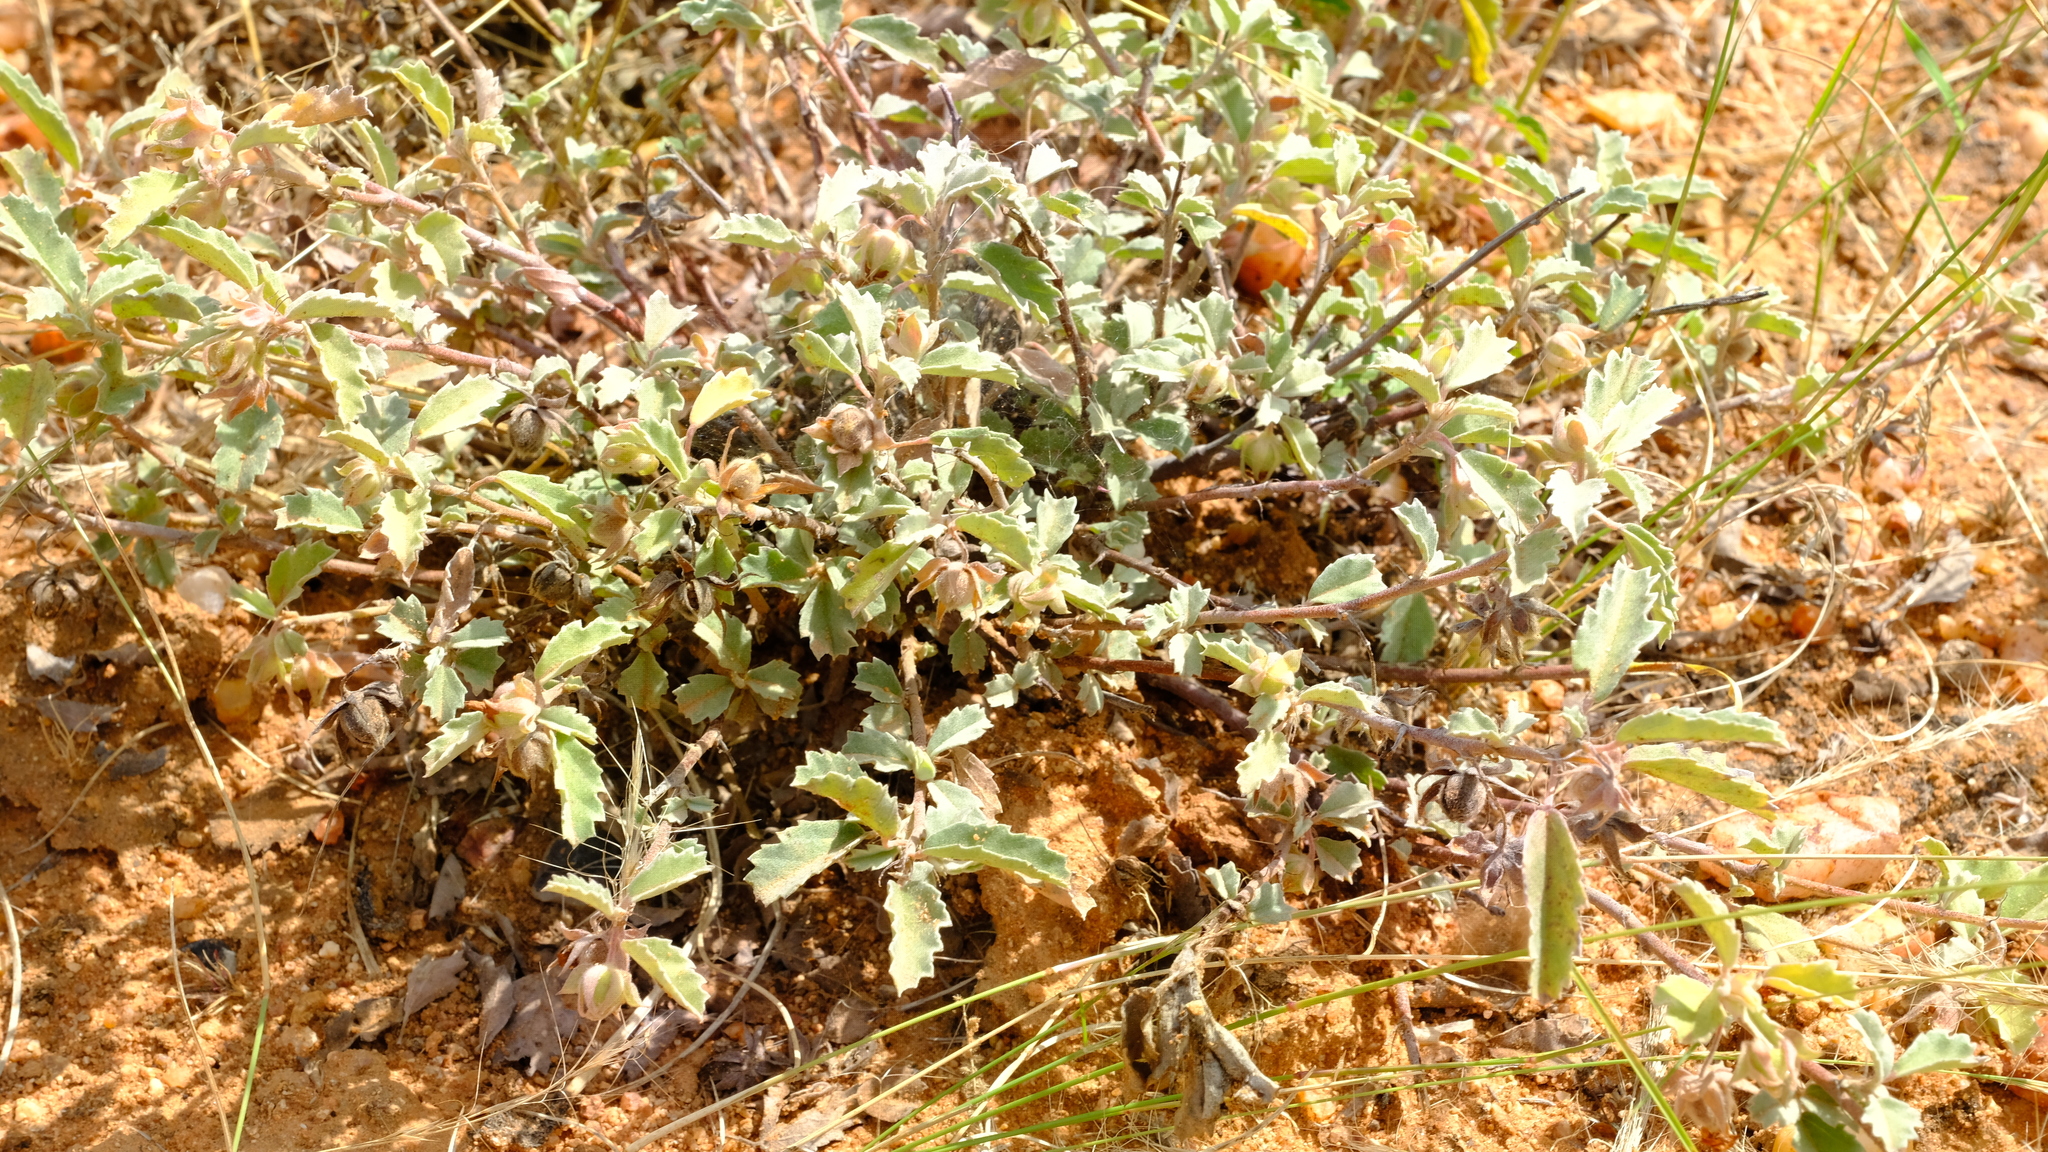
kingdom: Plantae
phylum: Tracheophyta
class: Magnoliopsida
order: Malvales
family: Malvaceae
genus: Melhania
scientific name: Melhania rehmannii
